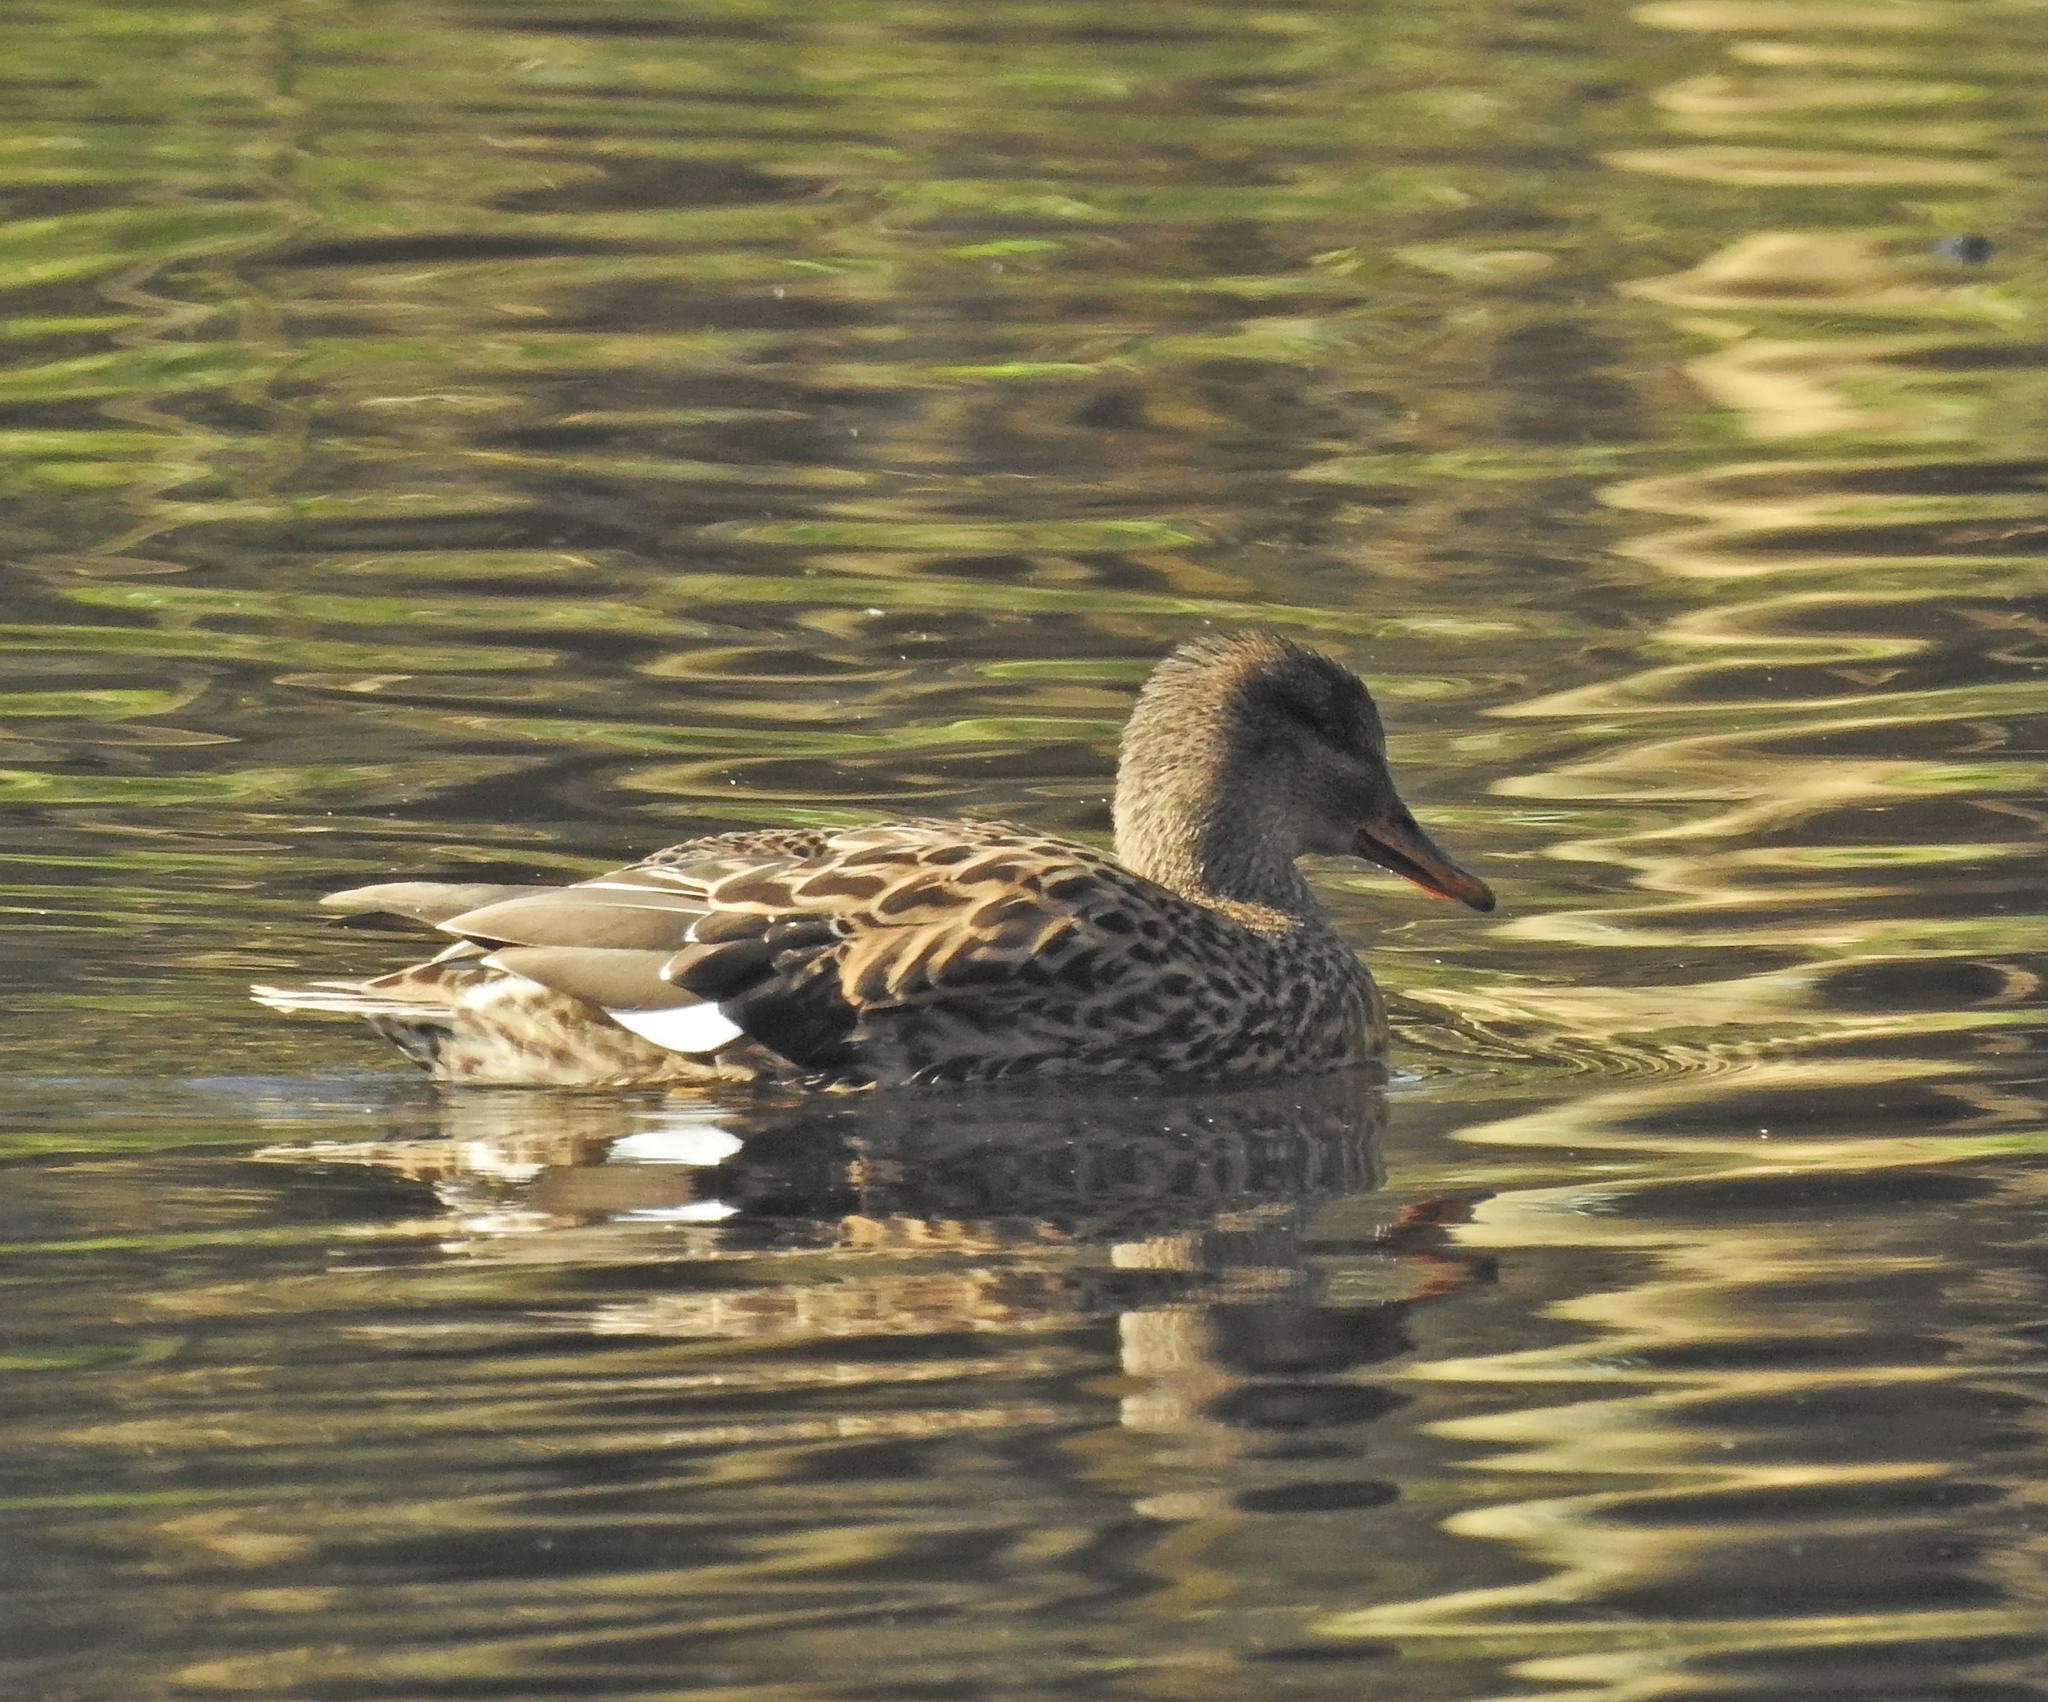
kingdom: Animalia
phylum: Chordata
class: Aves
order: Anseriformes
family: Anatidae
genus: Mareca
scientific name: Mareca strepera
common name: Gadwall
